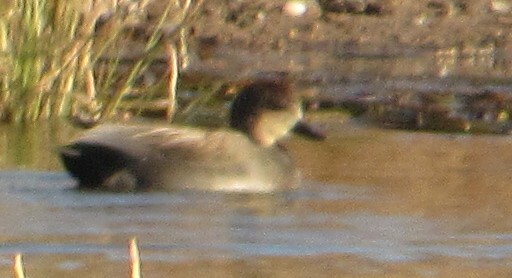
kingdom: Animalia
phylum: Chordata
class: Aves
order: Anseriformes
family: Anatidae
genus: Mareca
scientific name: Mareca strepera
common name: Gadwall
